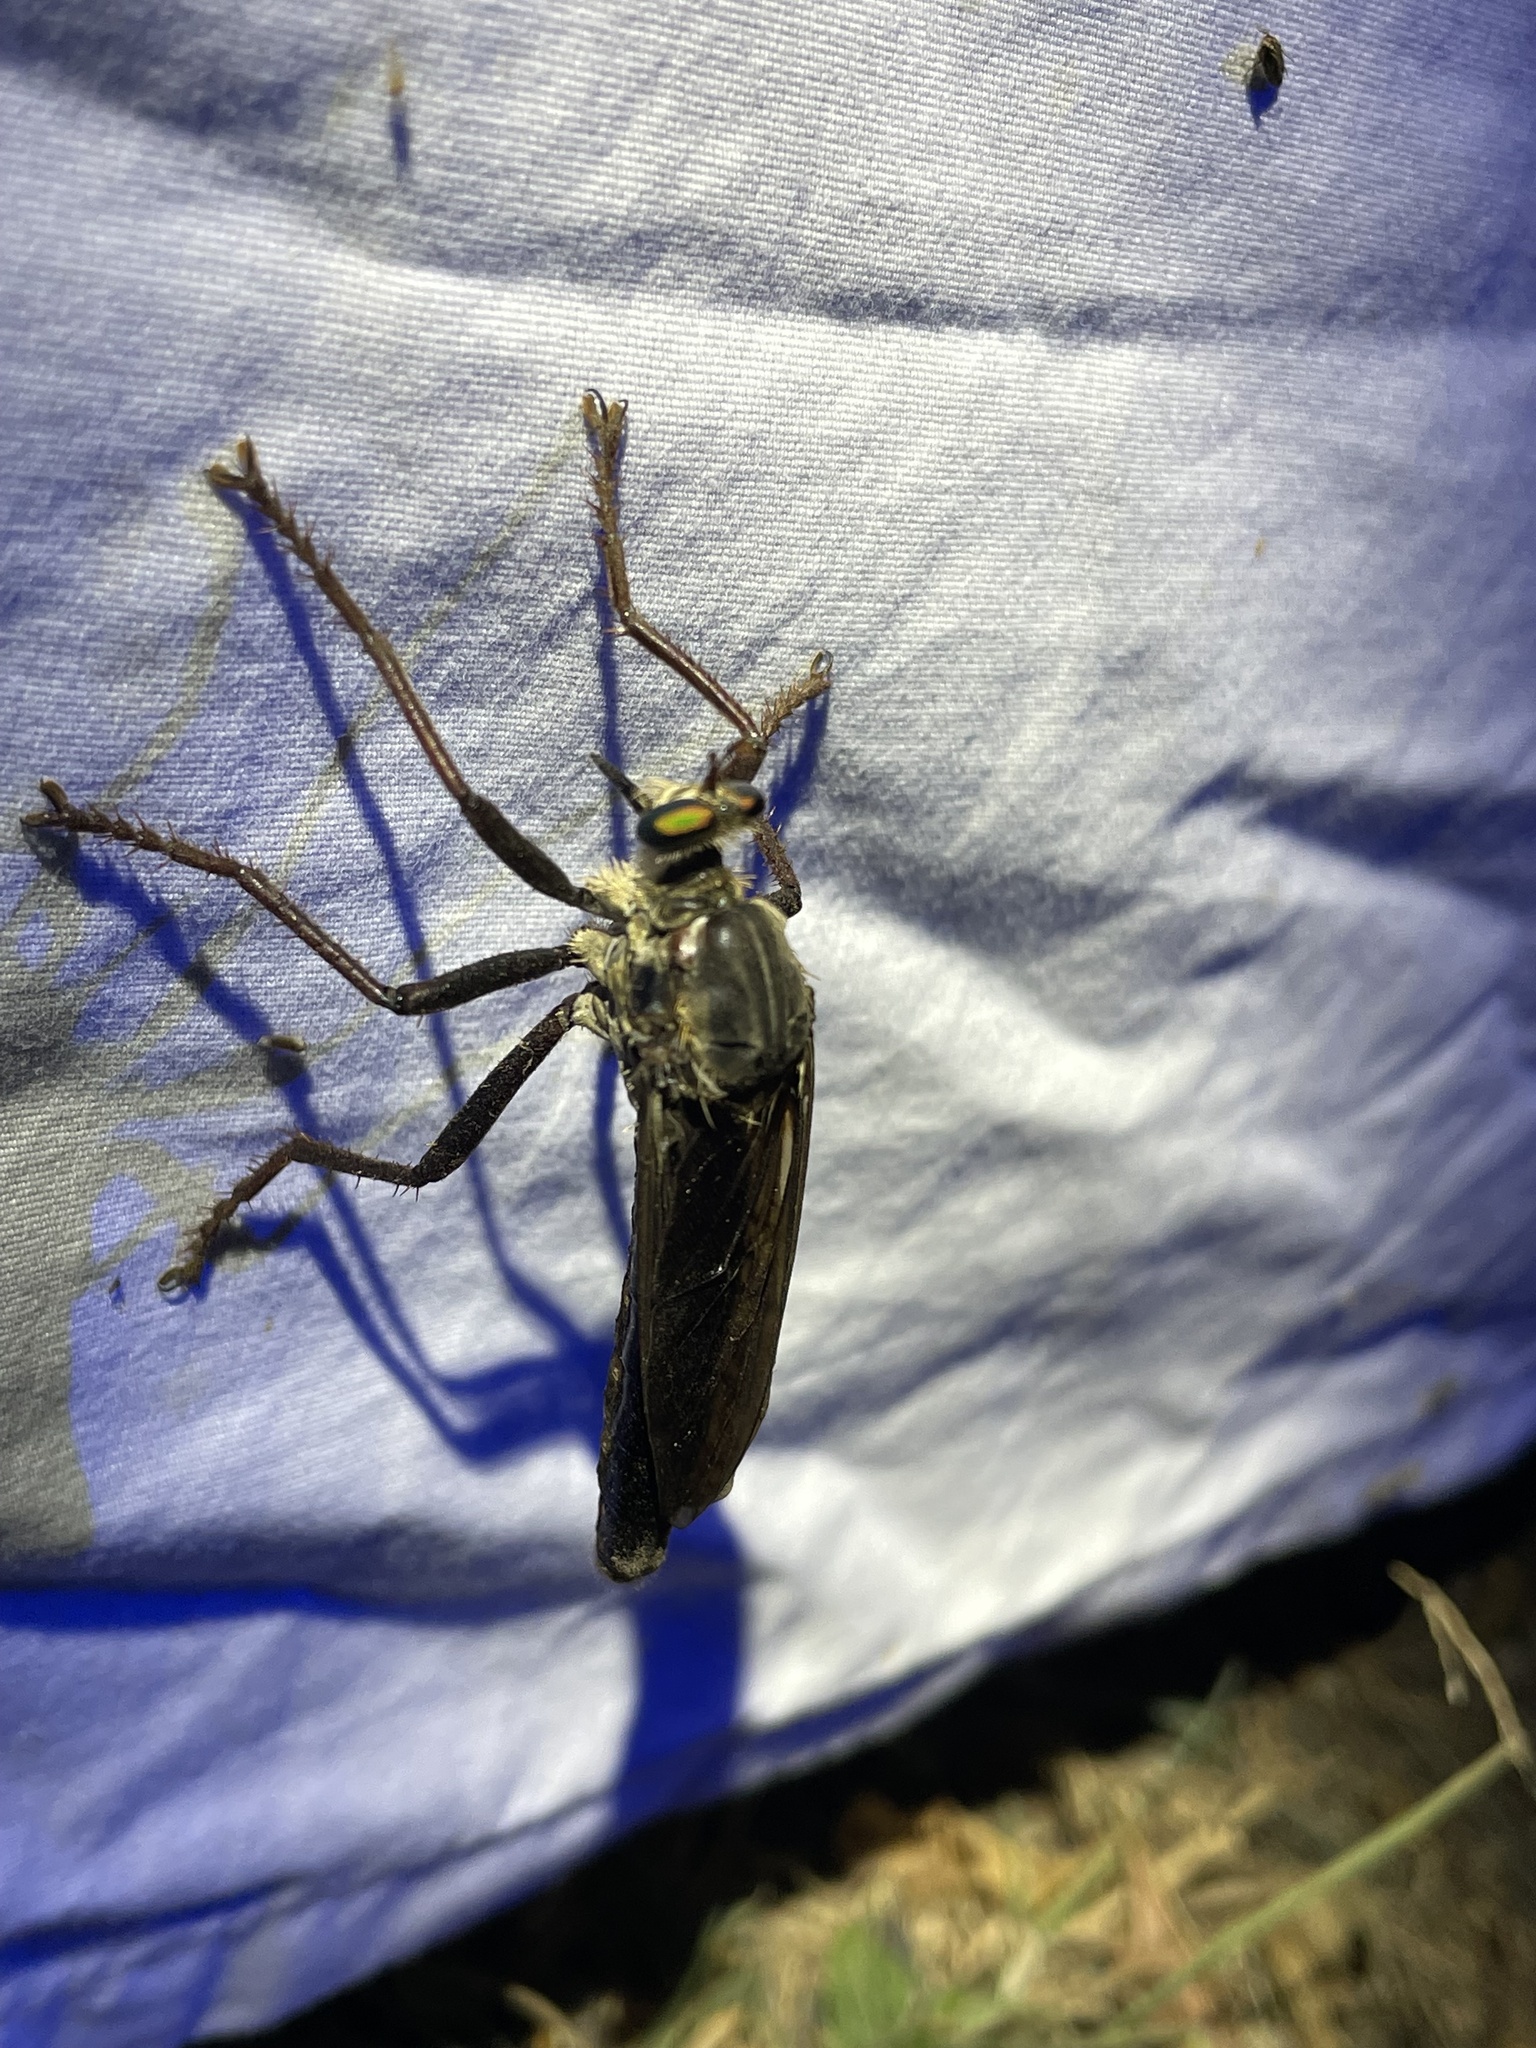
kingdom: Animalia
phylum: Arthropoda
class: Insecta
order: Diptera
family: Asilidae
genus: Microstylum
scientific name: Microstylum morosum
